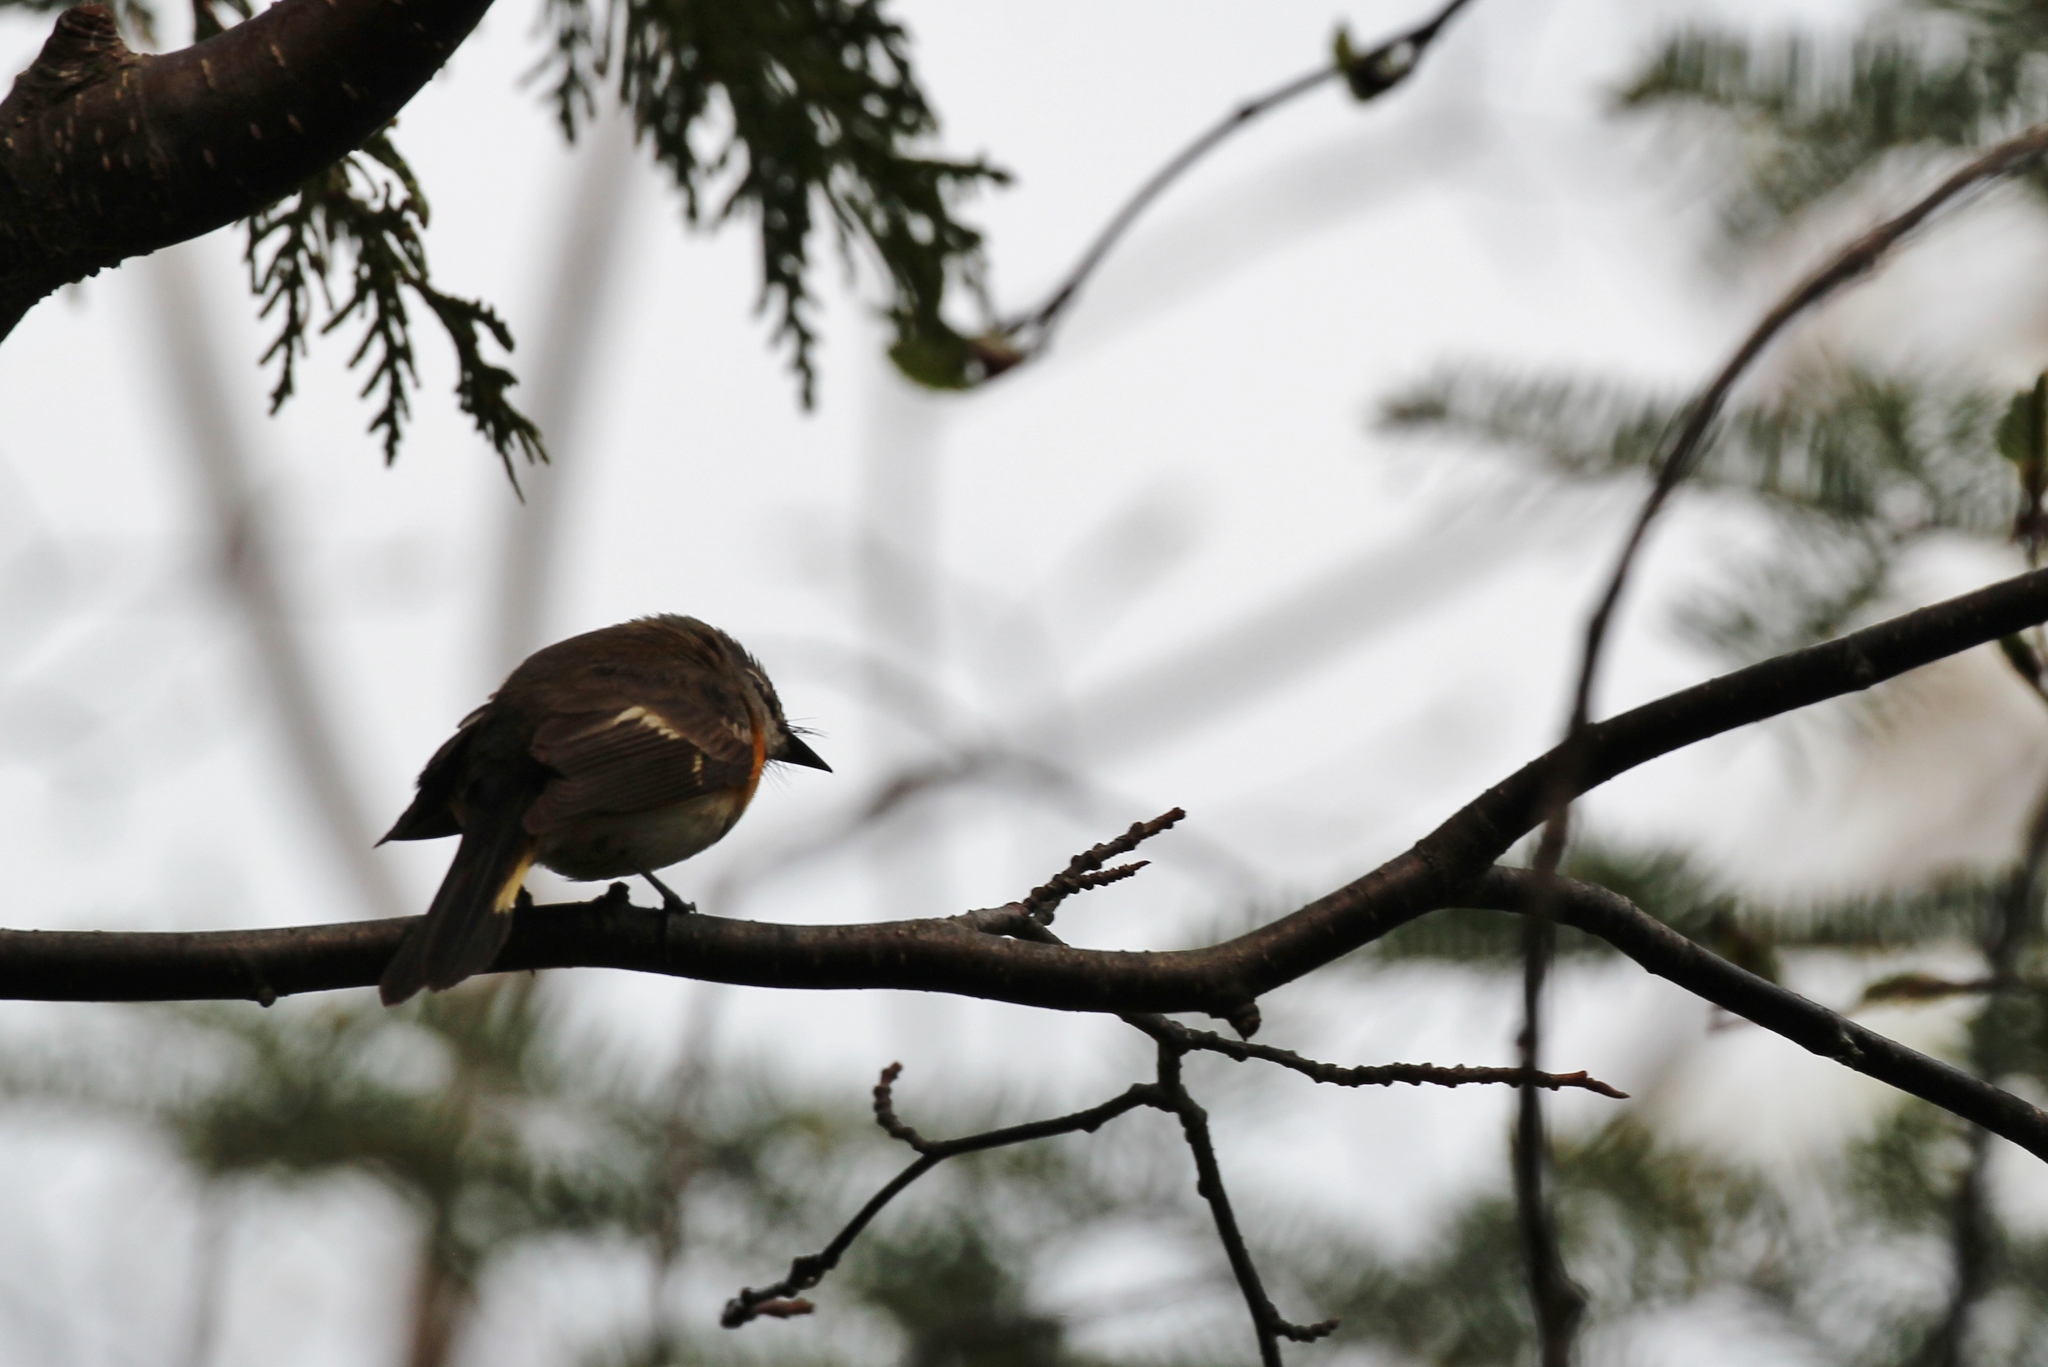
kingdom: Animalia
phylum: Chordata
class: Aves
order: Passeriformes
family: Parulidae
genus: Setophaga
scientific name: Setophaga ruticilla
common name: American redstart
